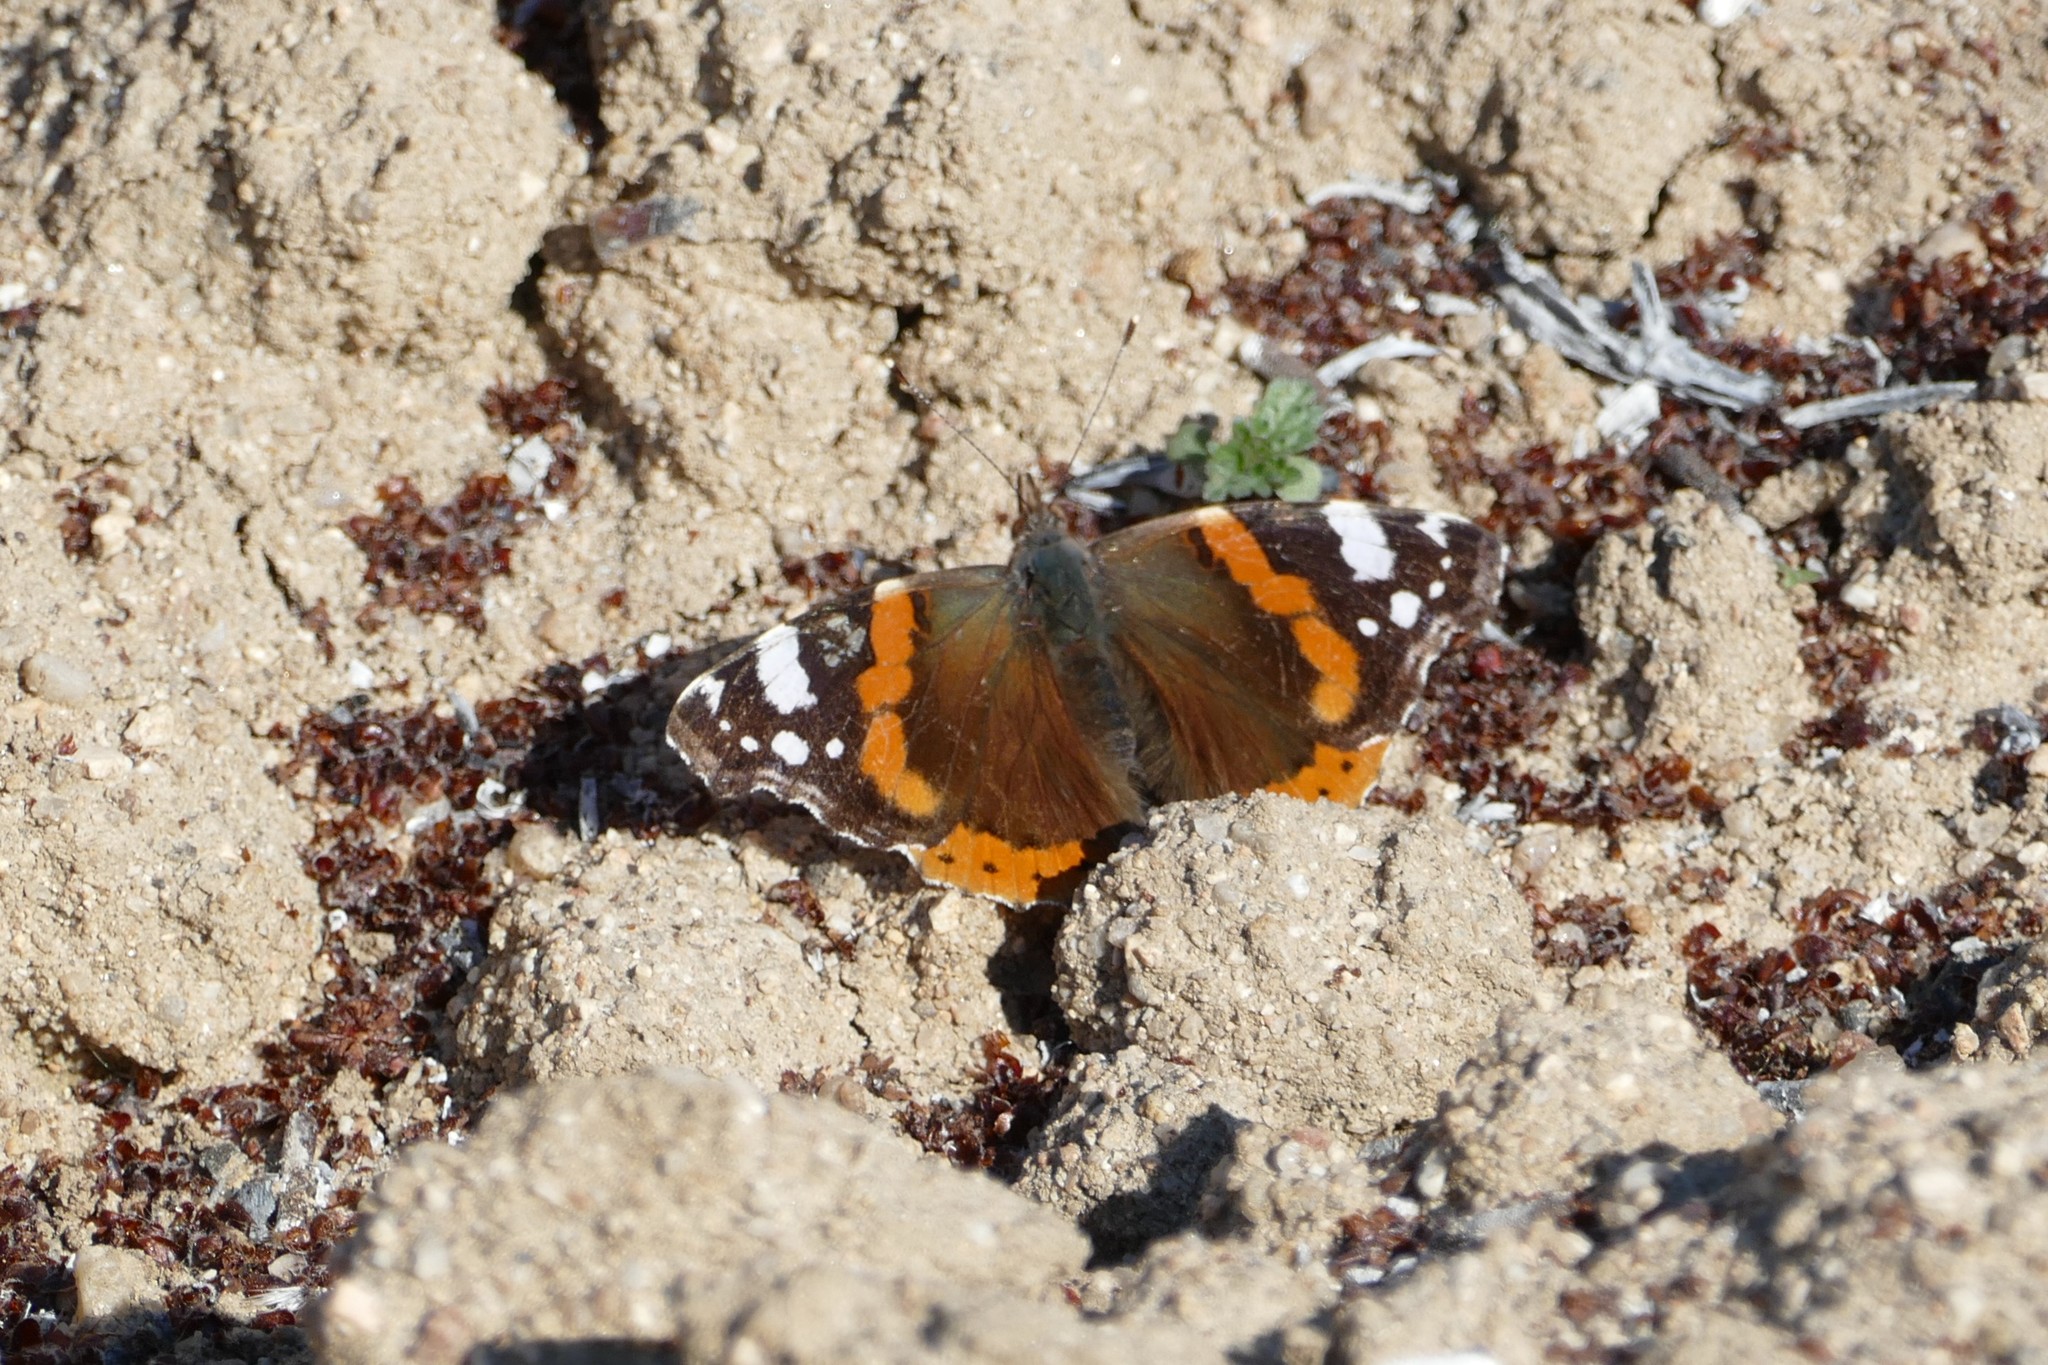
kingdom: Animalia
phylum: Arthropoda
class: Insecta
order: Lepidoptera
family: Nymphalidae
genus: Vanessa
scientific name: Vanessa atalanta
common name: Red admiral
